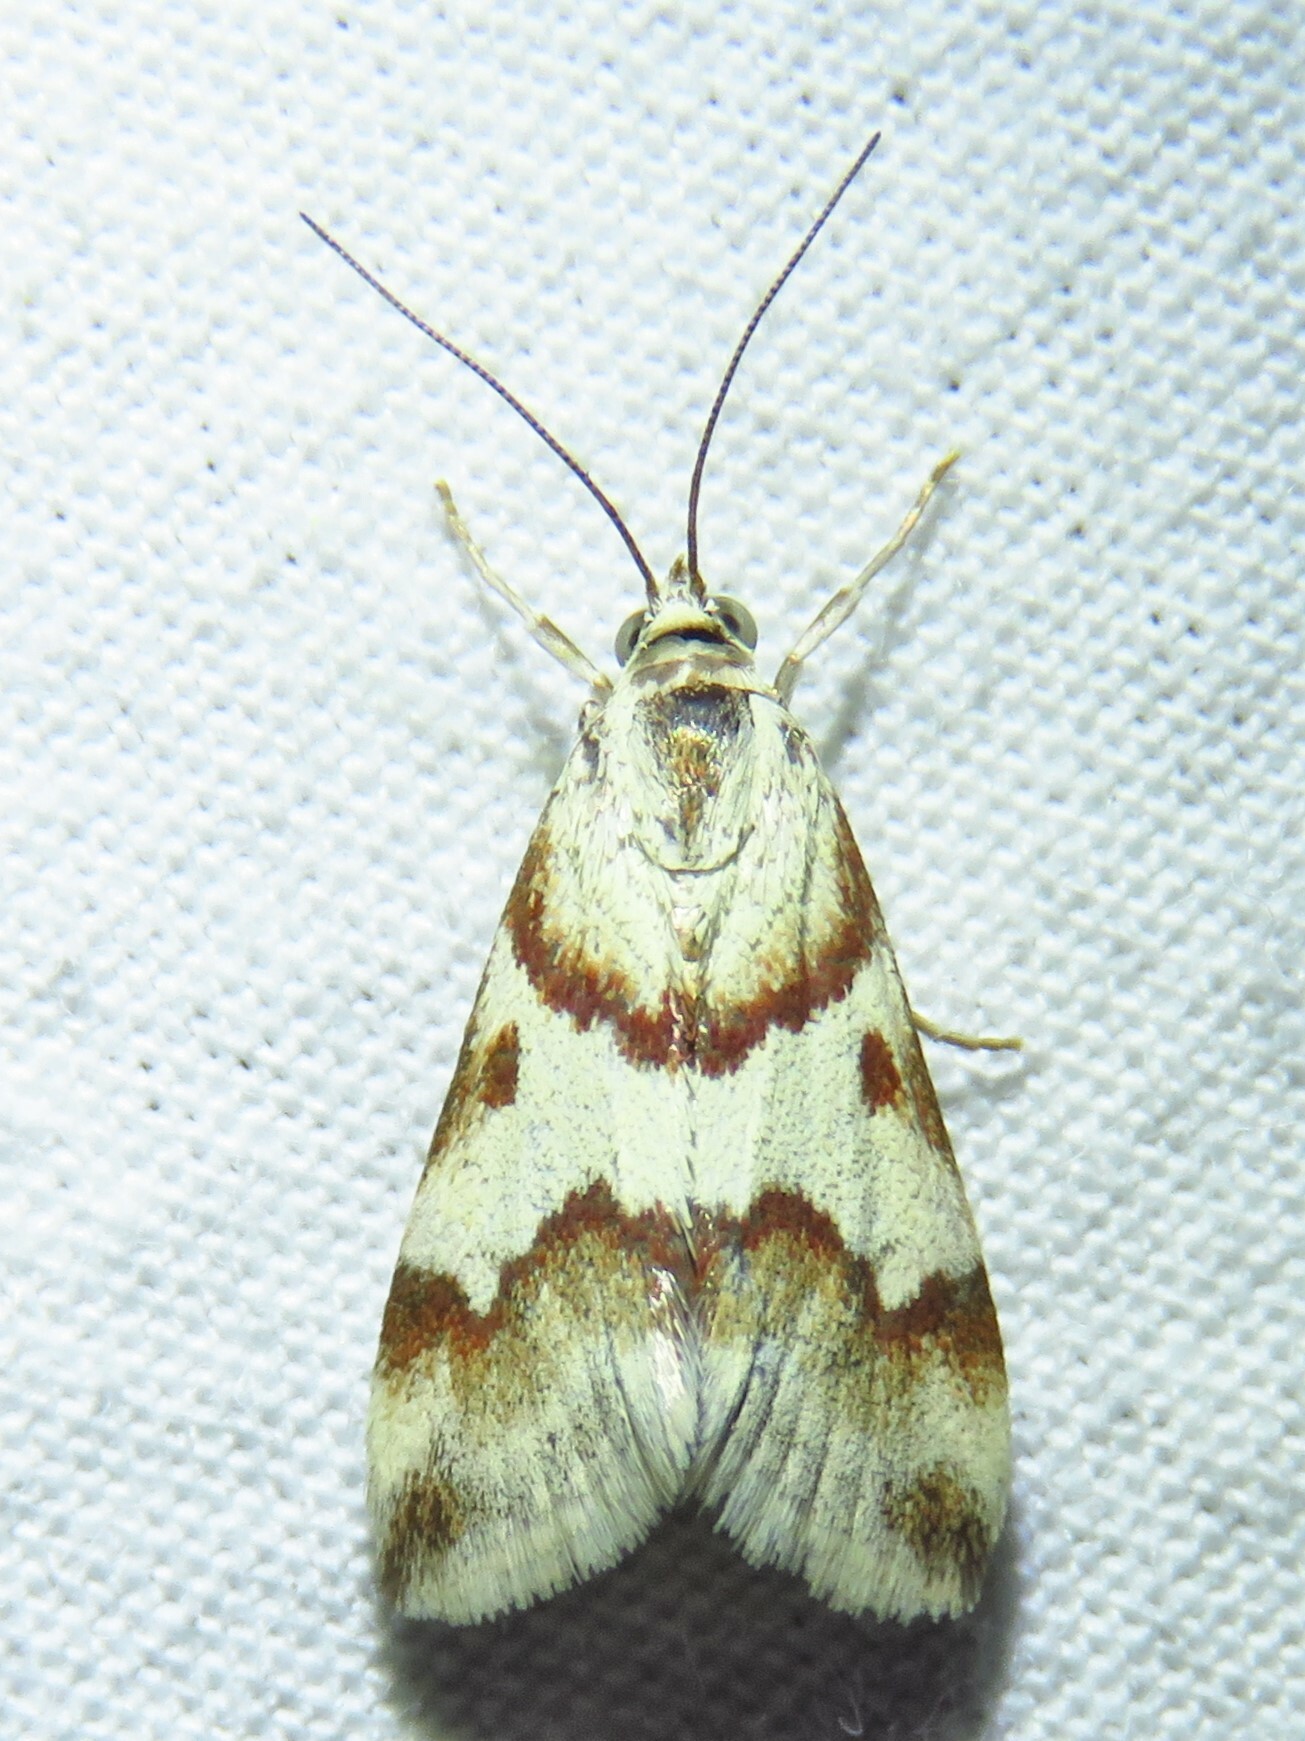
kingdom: Animalia
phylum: Arthropoda
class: Insecta
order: Lepidoptera
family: Crambidae
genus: Noctuelia
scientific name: Noctuelia Mimoschinia rufofascialis
